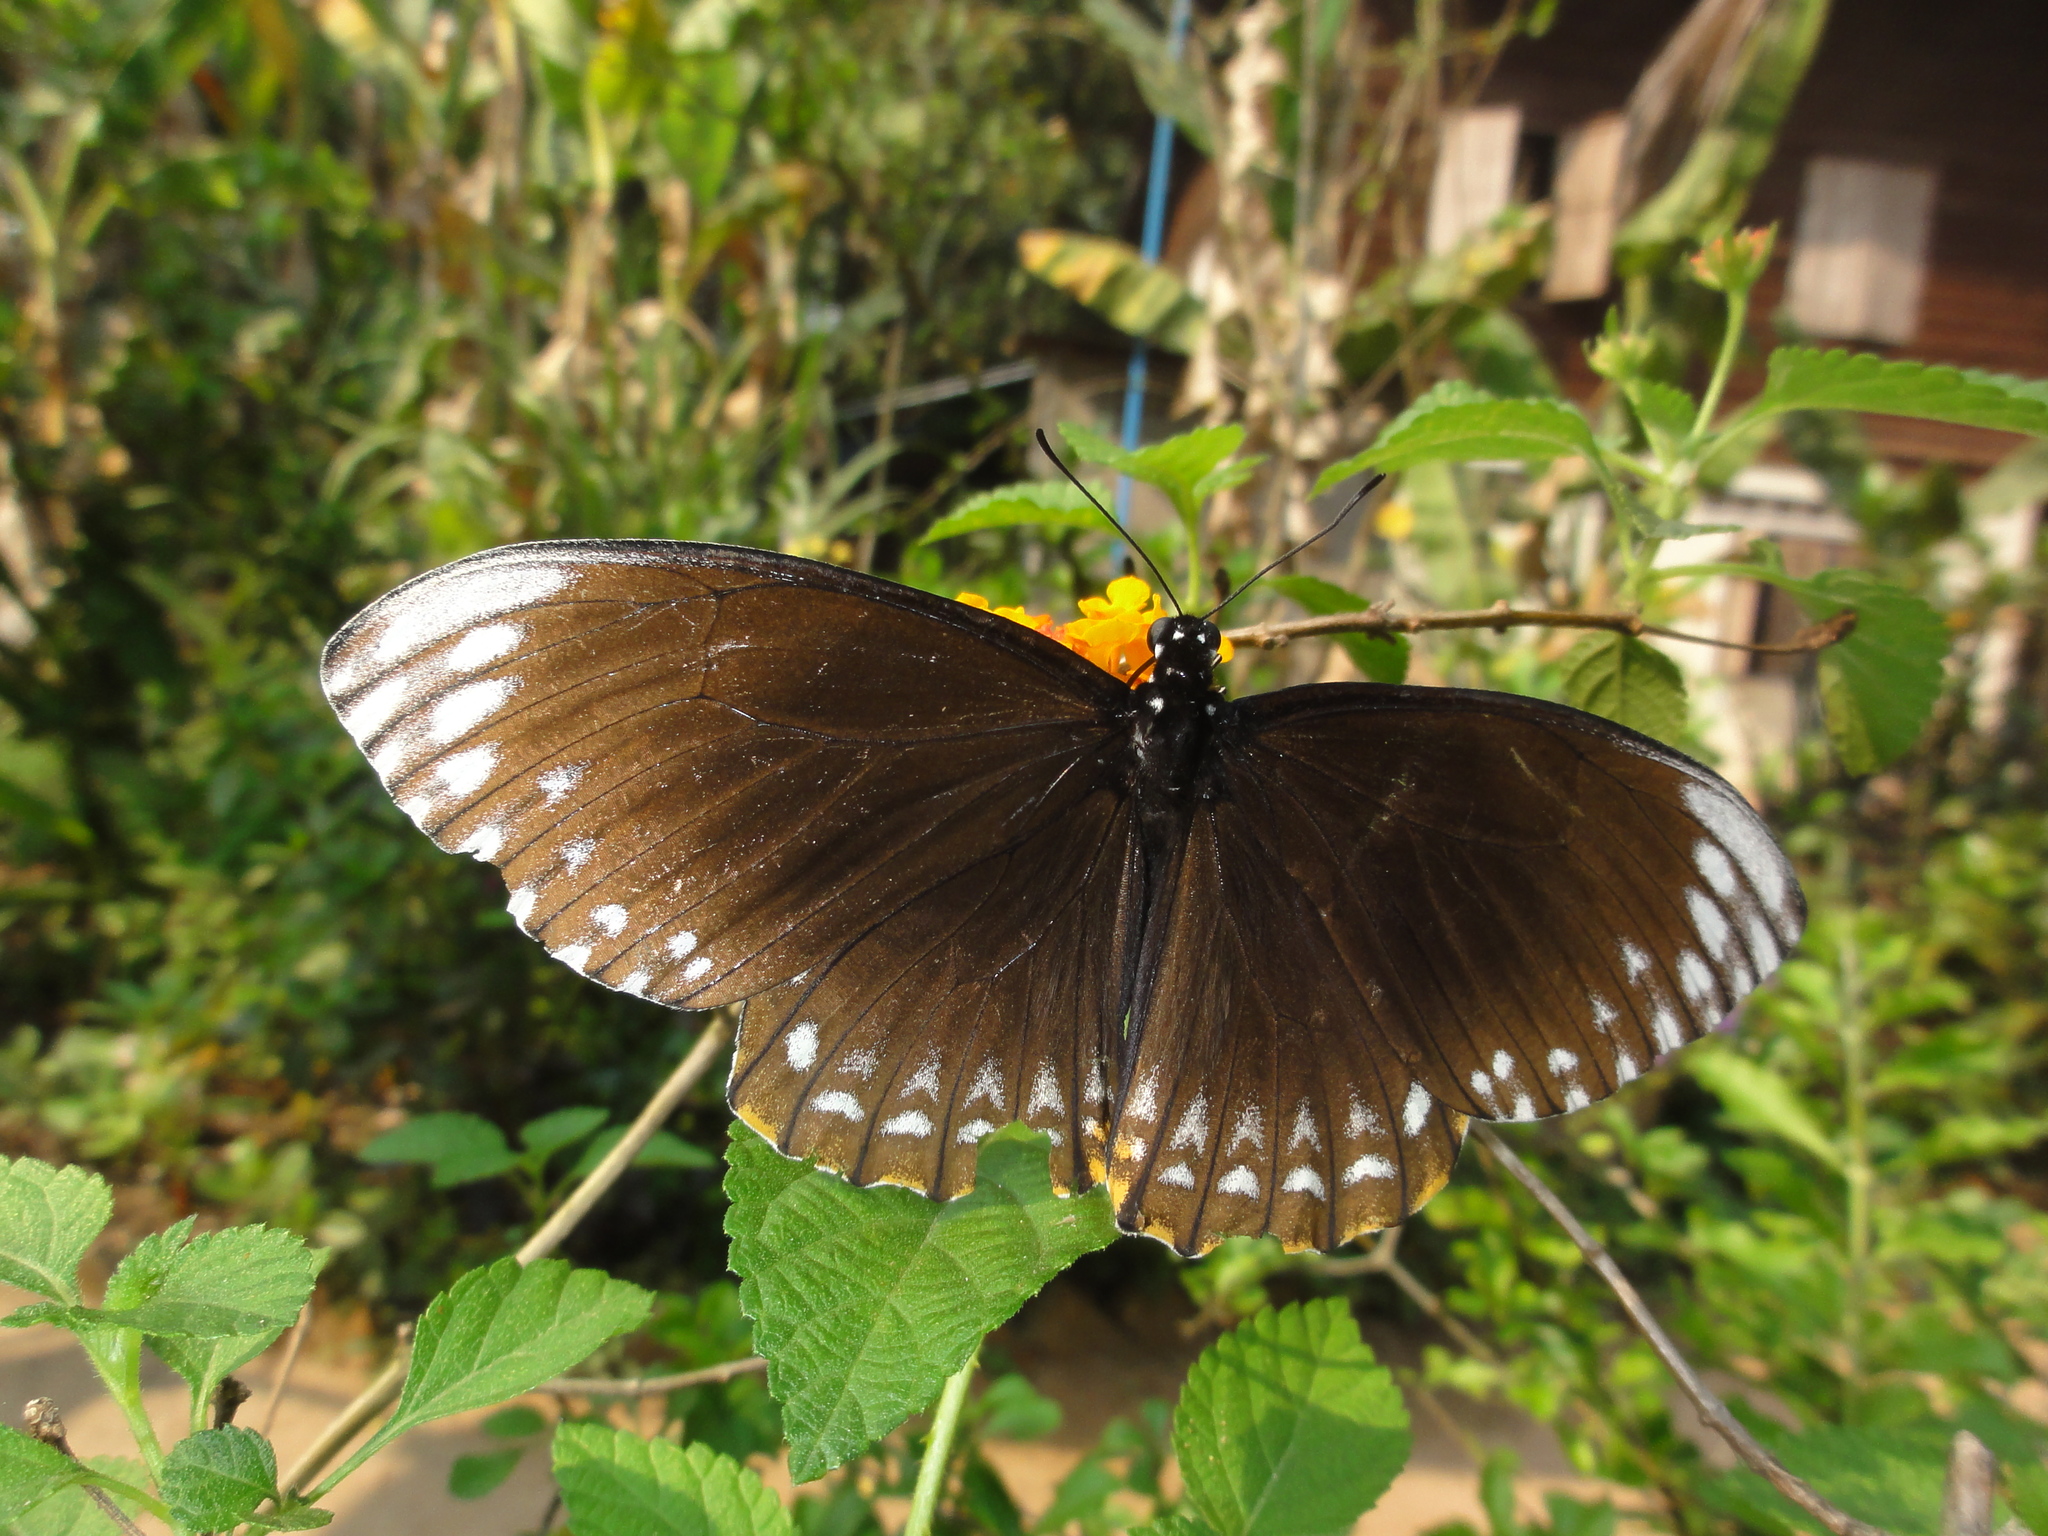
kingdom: Animalia
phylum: Arthropoda
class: Insecta
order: Lepidoptera
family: Papilionidae
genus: Chilasa
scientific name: Chilasa clytia
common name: Common mime
